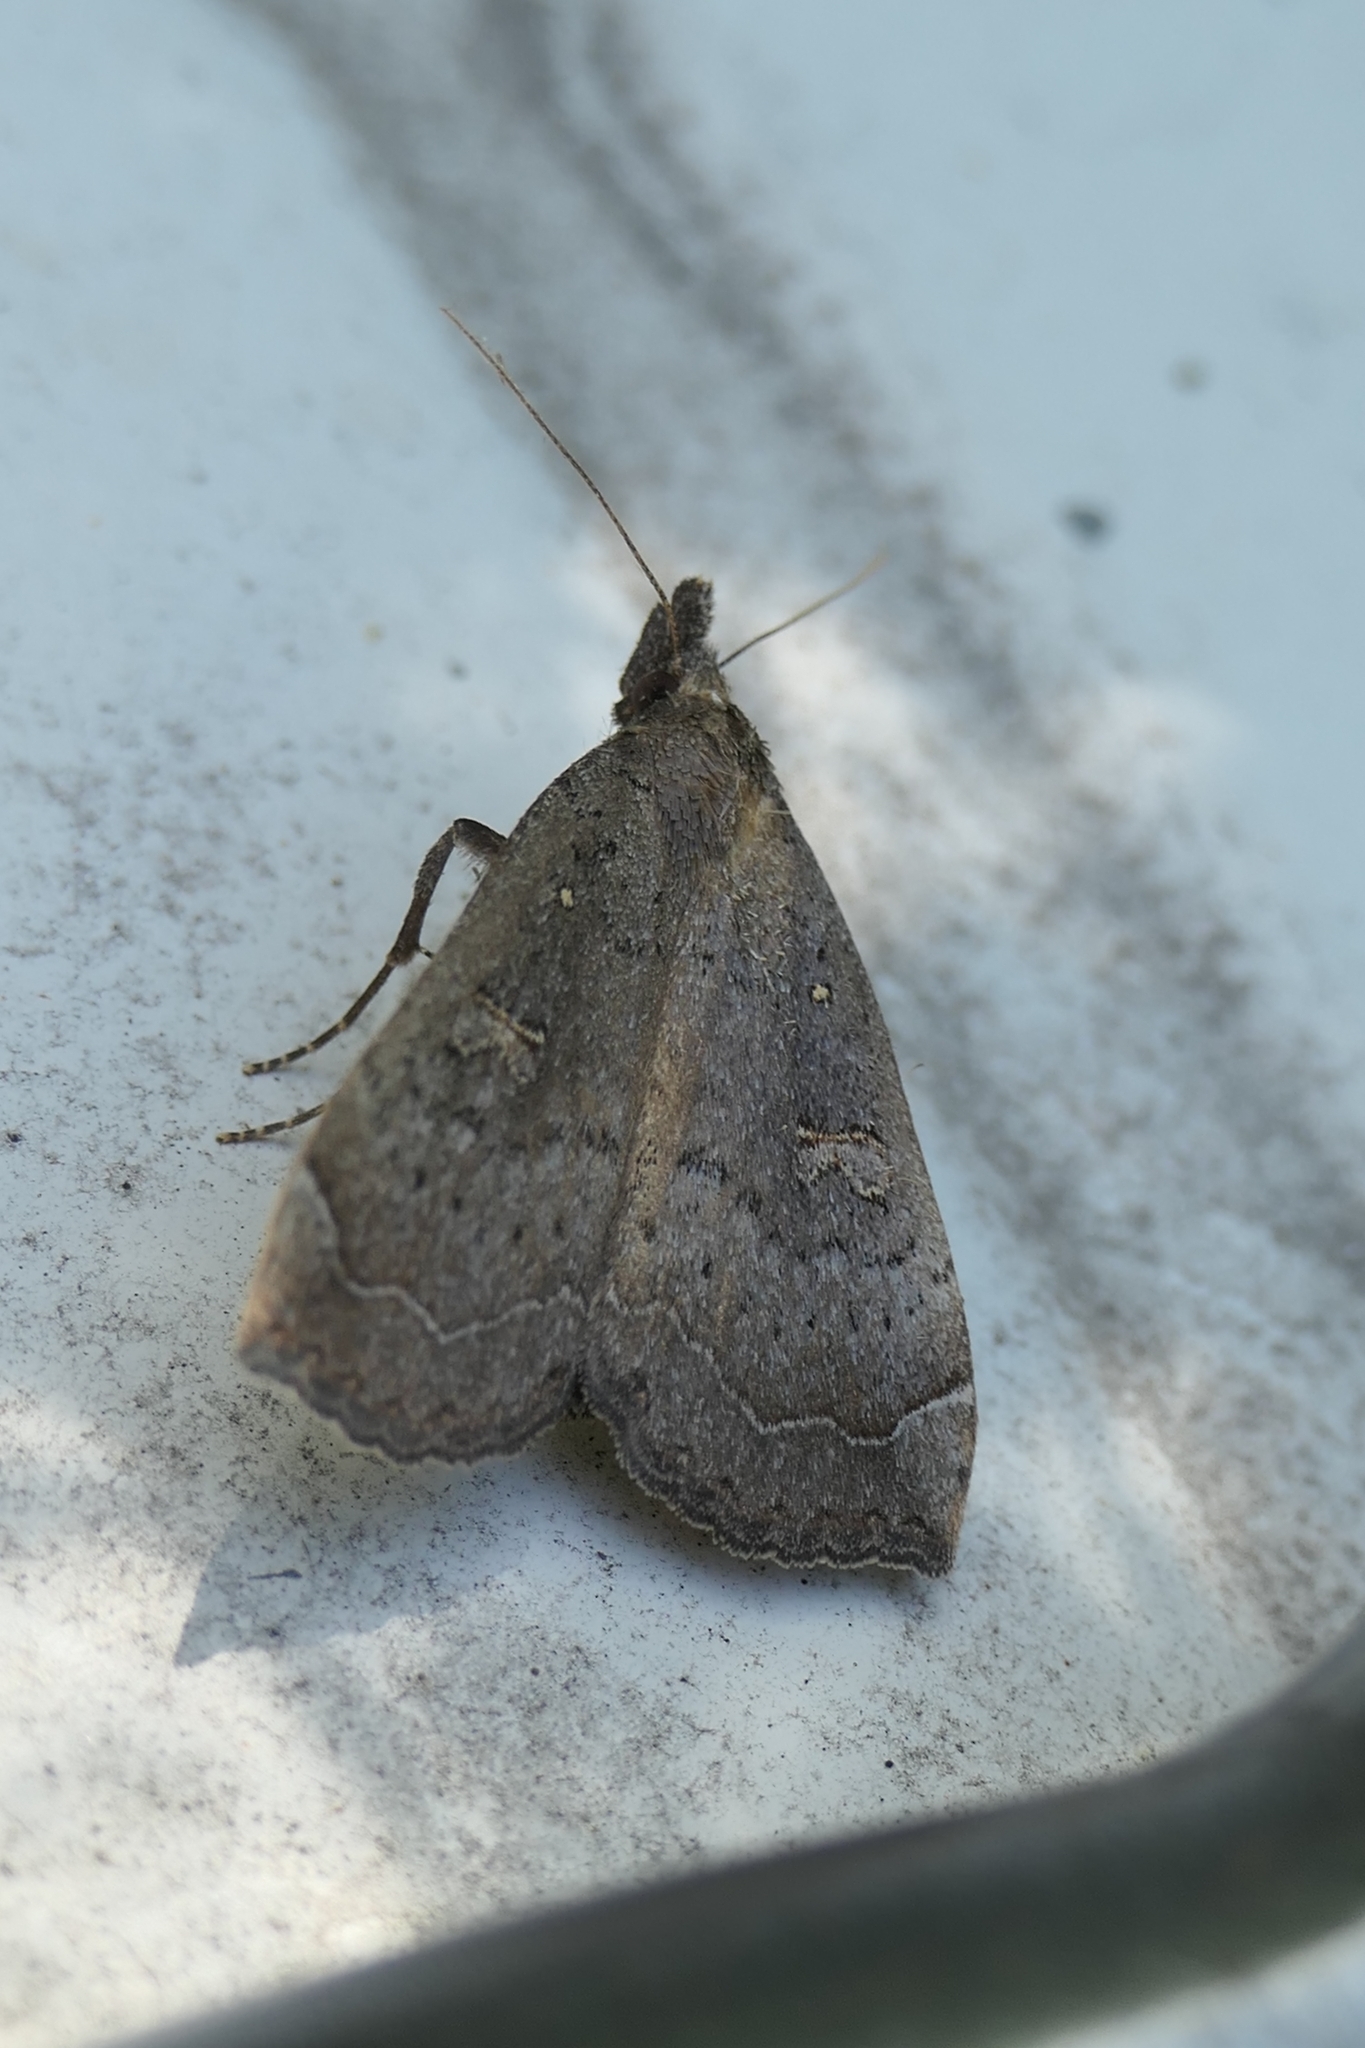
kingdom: Animalia
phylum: Arthropoda
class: Insecta
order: Lepidoptera
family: Erebidae
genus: Rhapsa
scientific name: Rhapsa scotosialis
